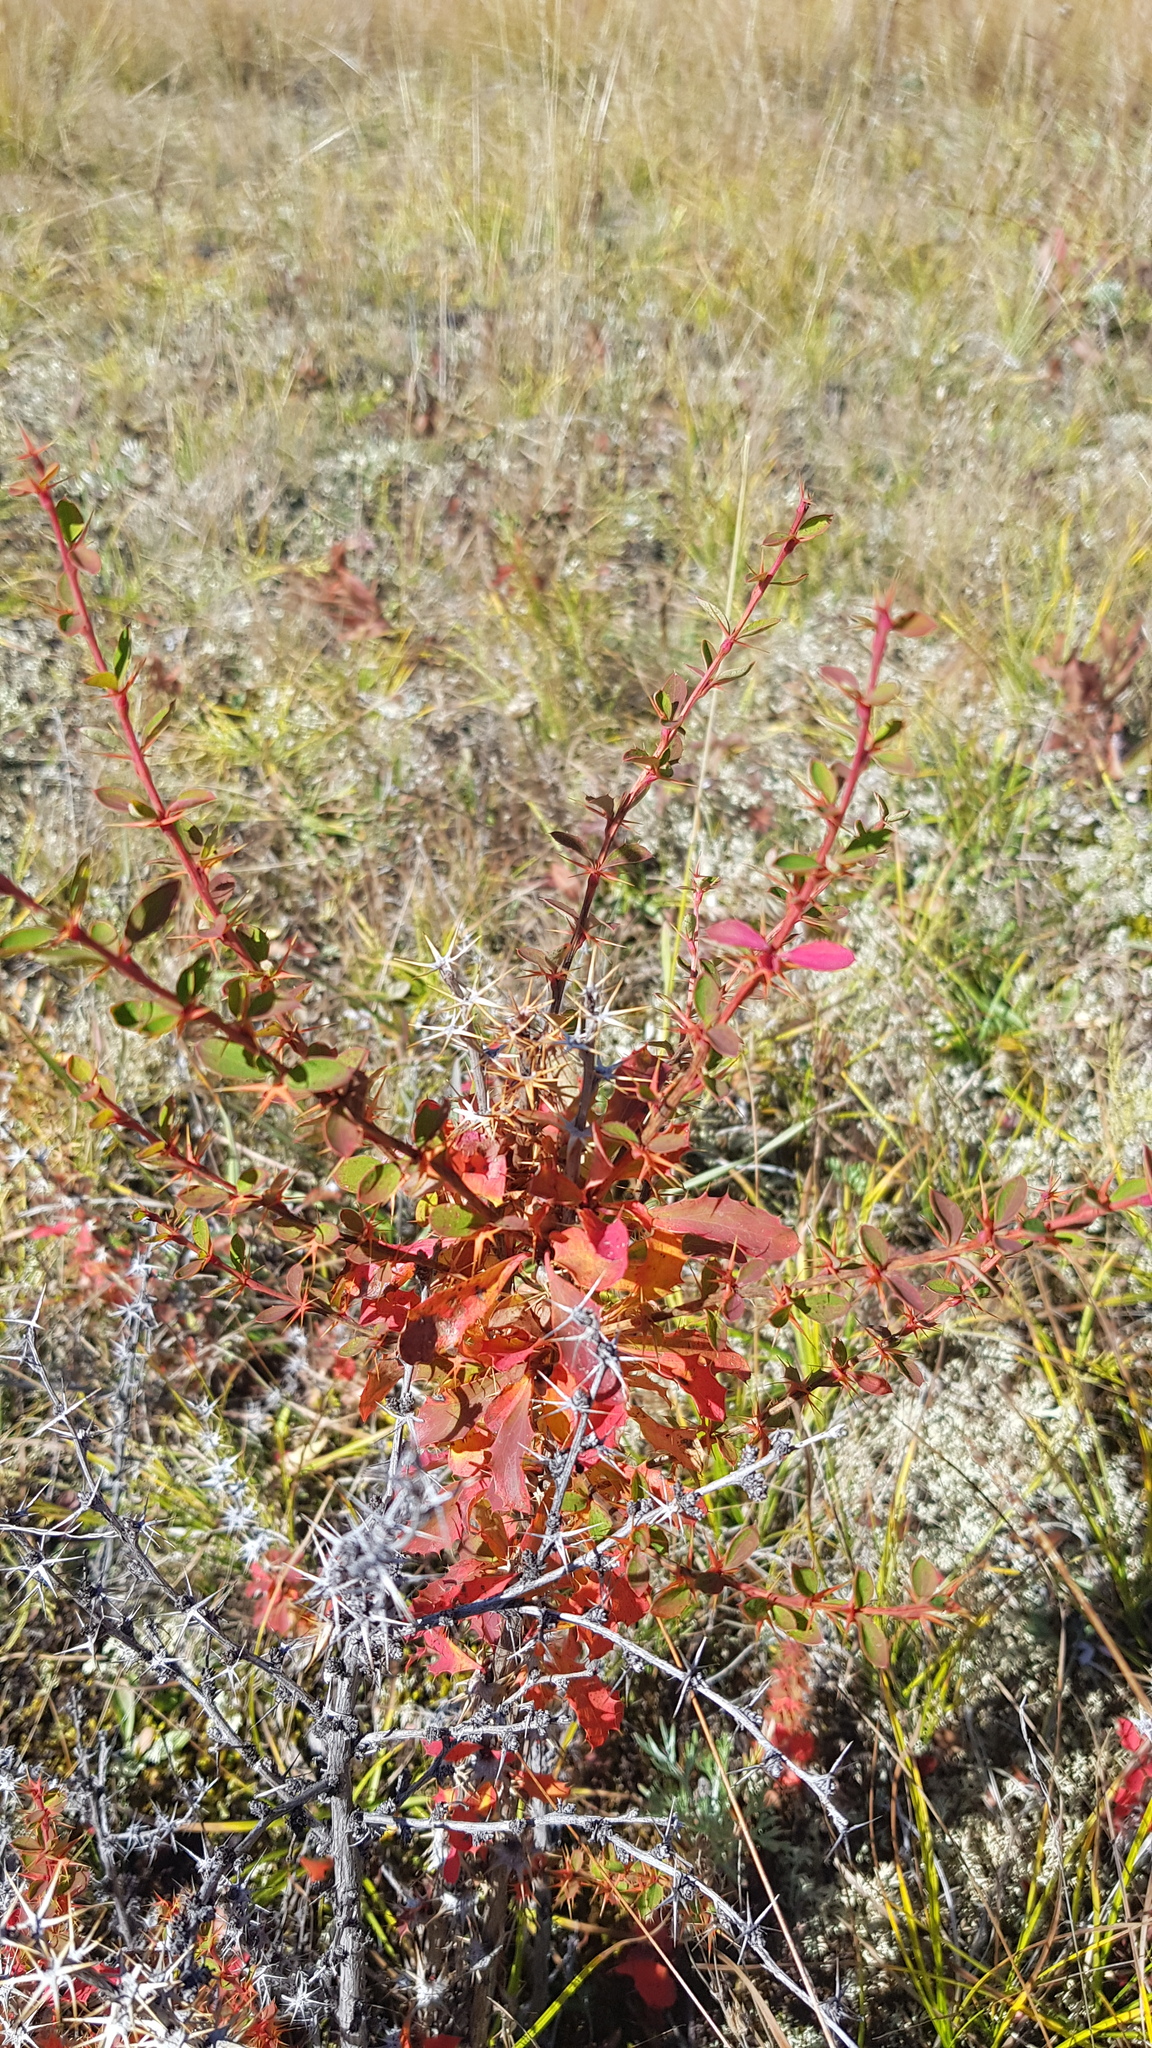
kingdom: Plantae
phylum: Tracheophyta
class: Magnoliopsida
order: Ranunculales
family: Berberidaceae
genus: Berberis
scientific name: Berberis sibirica
